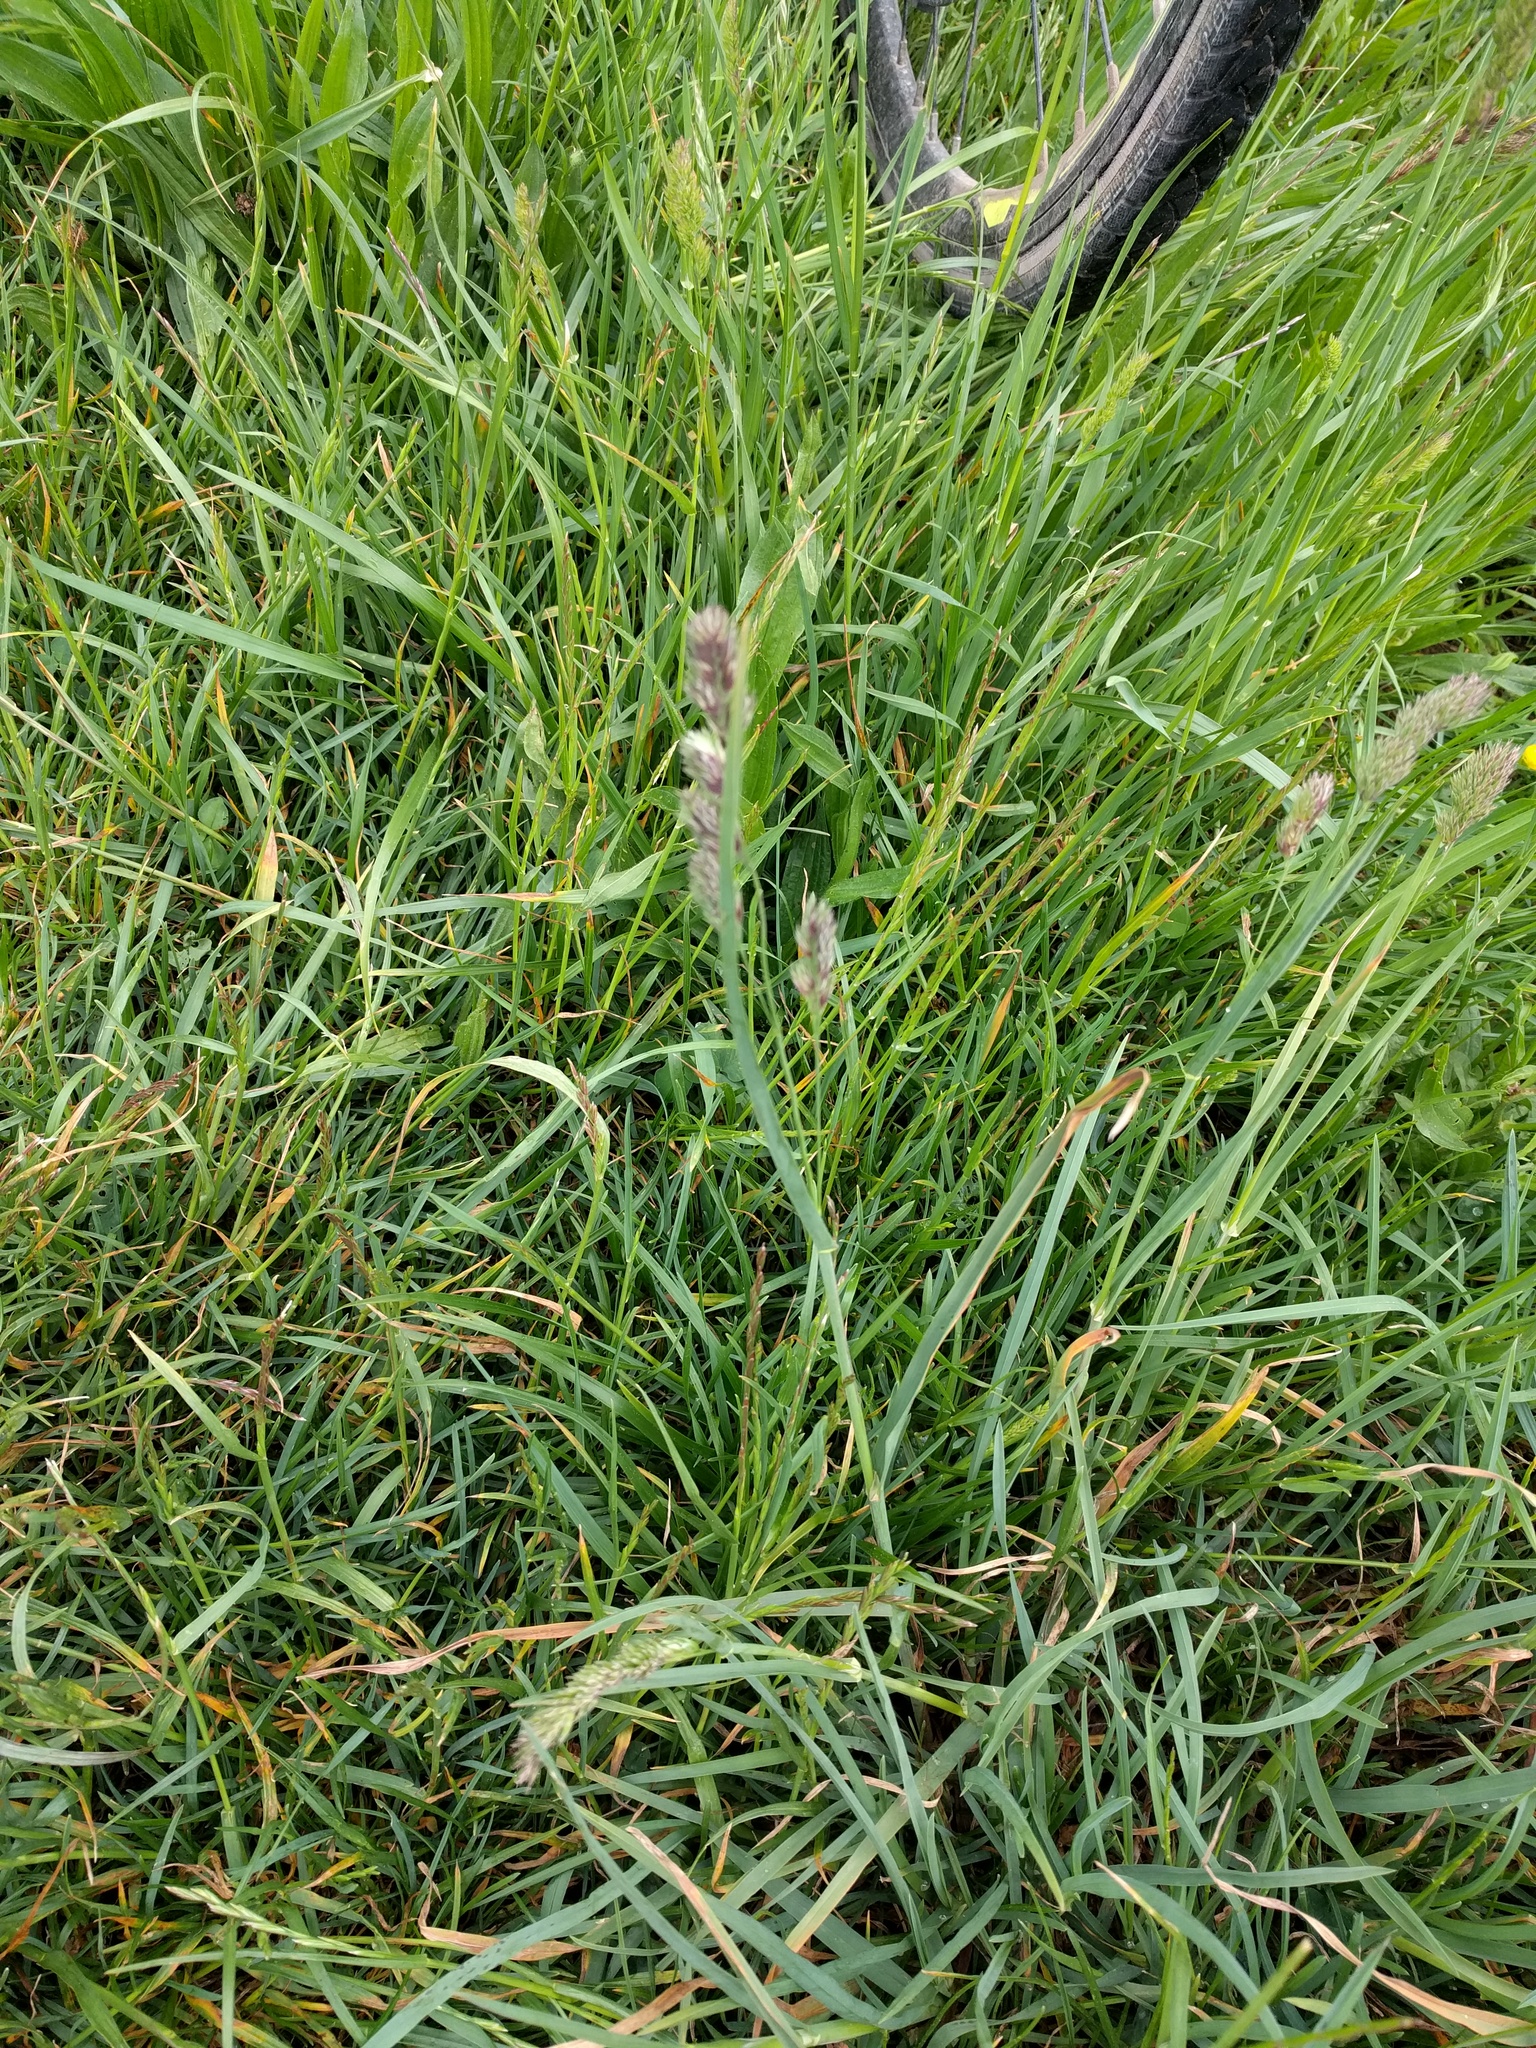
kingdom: Plantae
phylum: Tracheophyta
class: Liliopsida
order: Poales
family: Poaceae
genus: Dactylis
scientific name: Dactylis glomerata
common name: Orchardgrass
